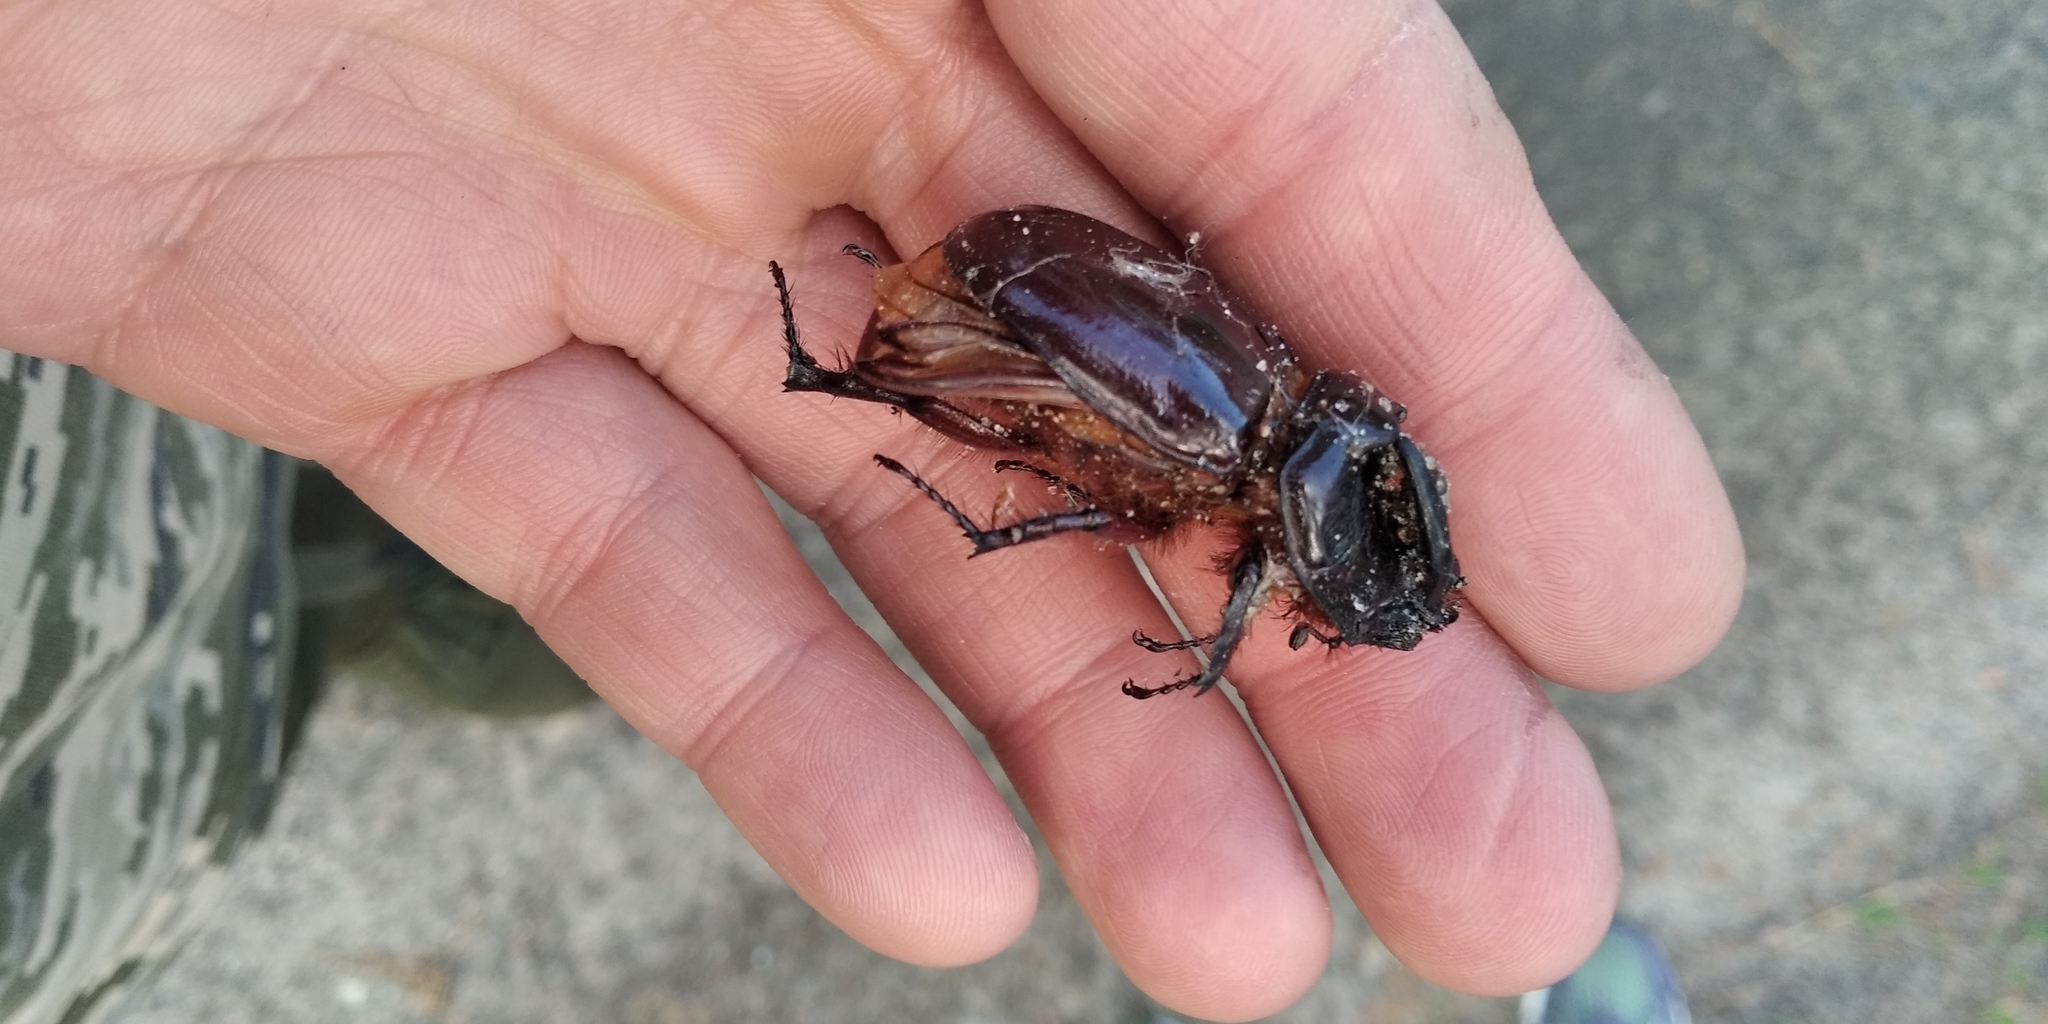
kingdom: Animalia
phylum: Arthropoda
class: Insecta
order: Coleoptera
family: Scarabaeidae
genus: Oryctes
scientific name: Oryctes nasicornis
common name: European rhinoceros beetle
